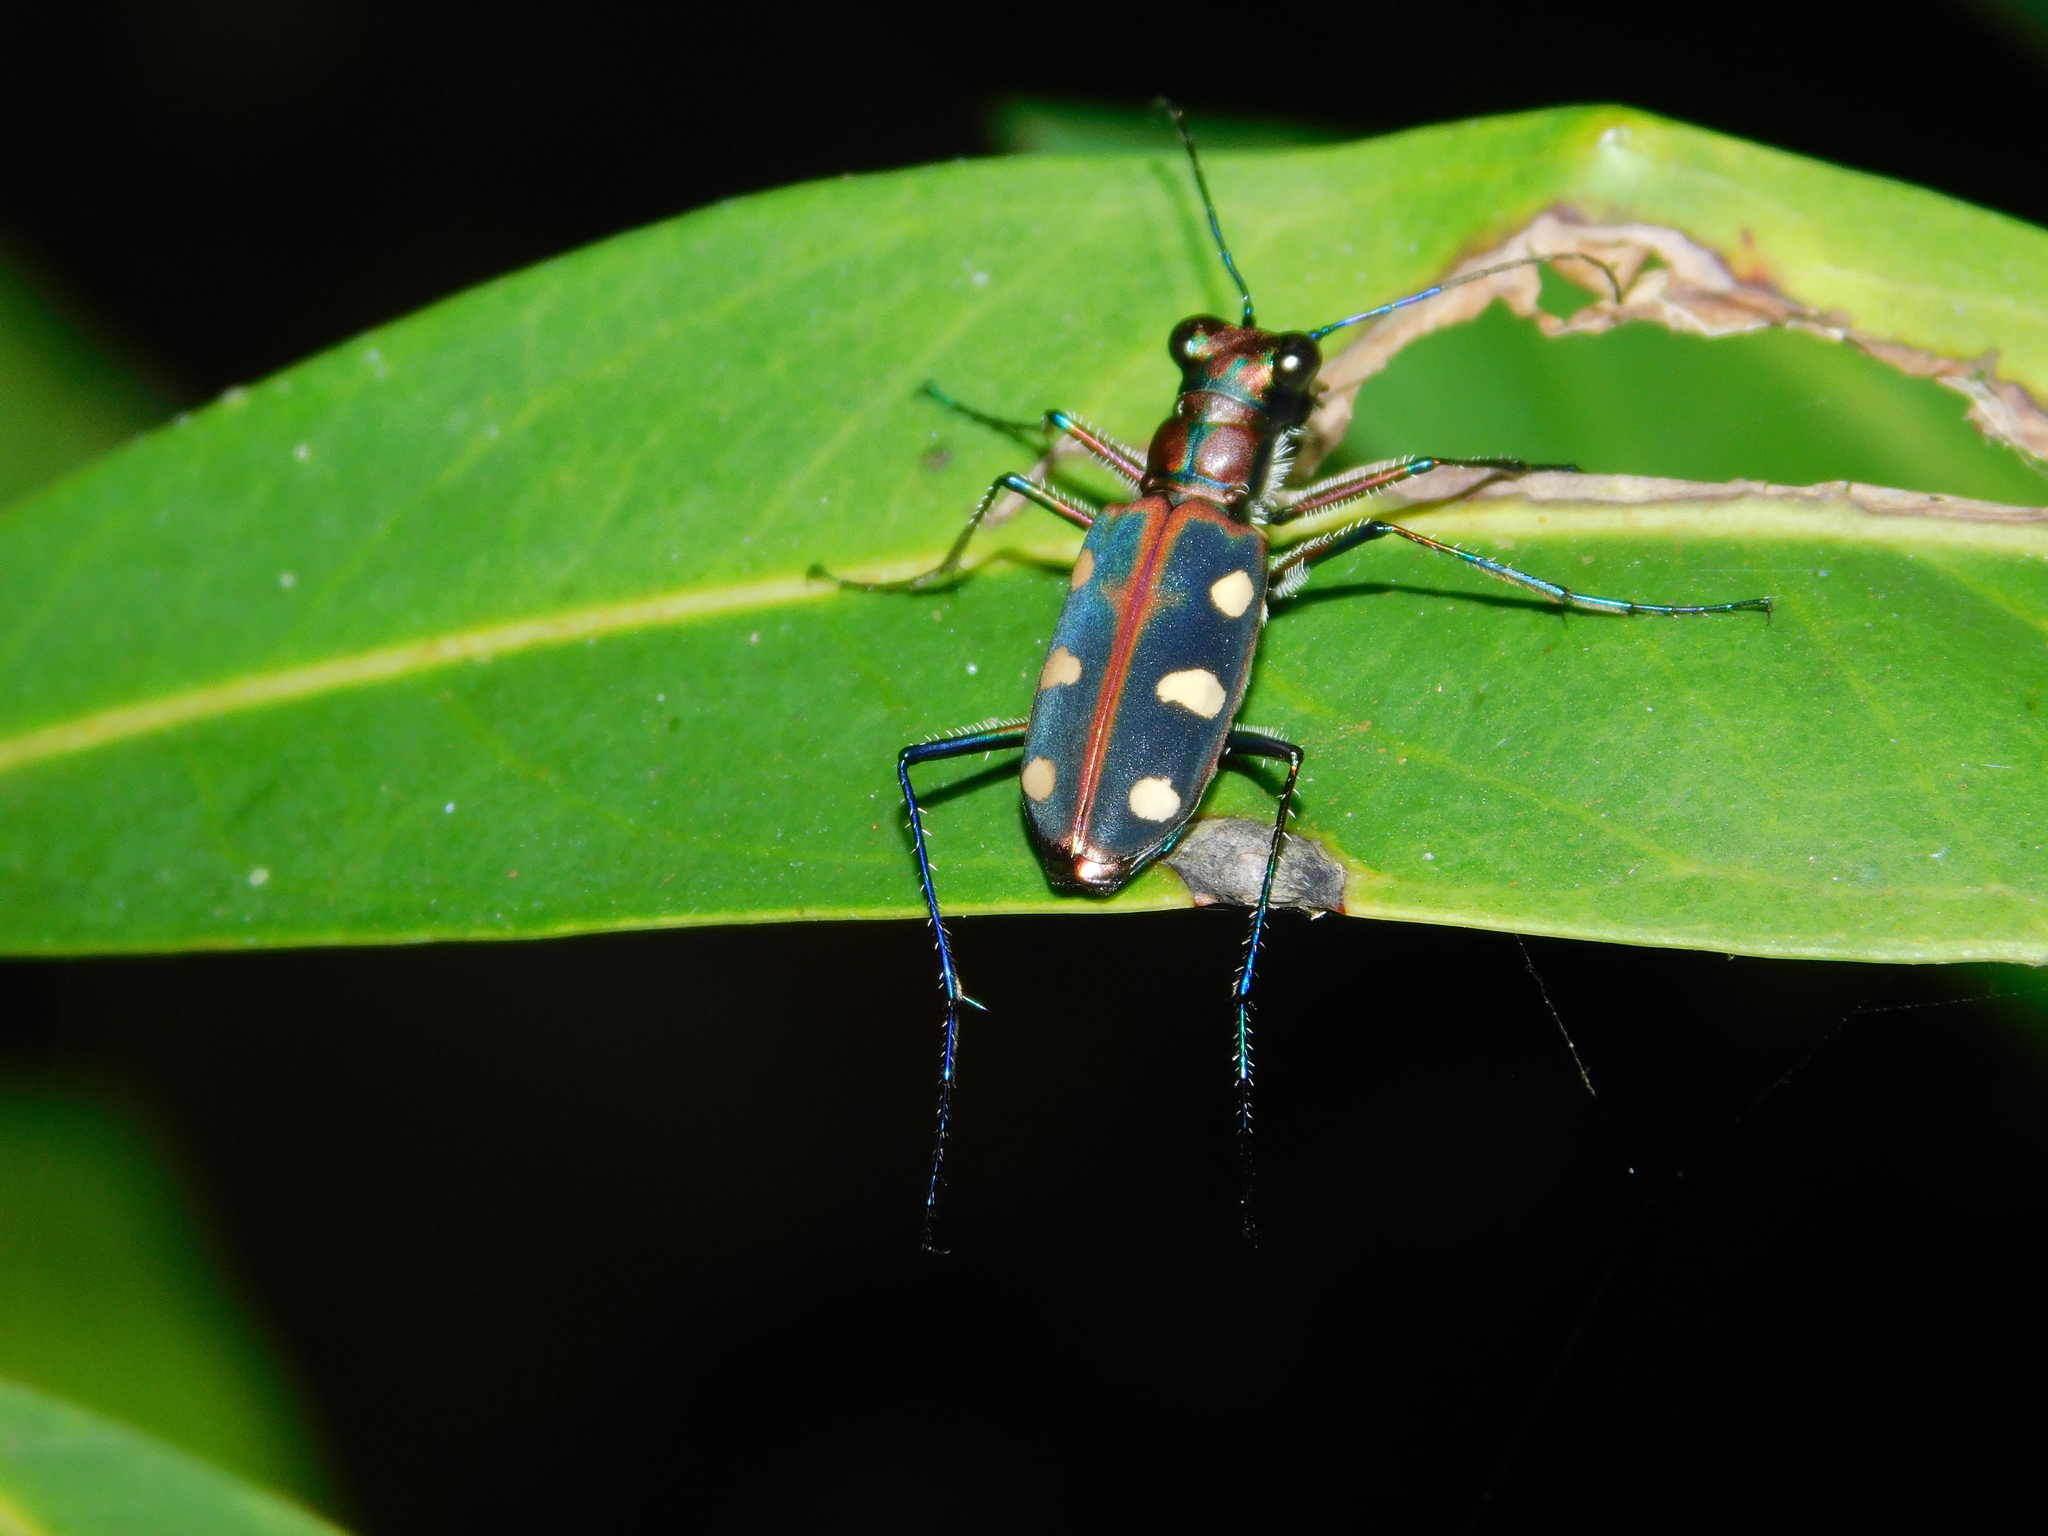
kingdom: Animalia
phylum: Arthropoda
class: Insecta
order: Coleoptera
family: Carabidae
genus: Cicindela
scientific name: Cicindela aurulenta
